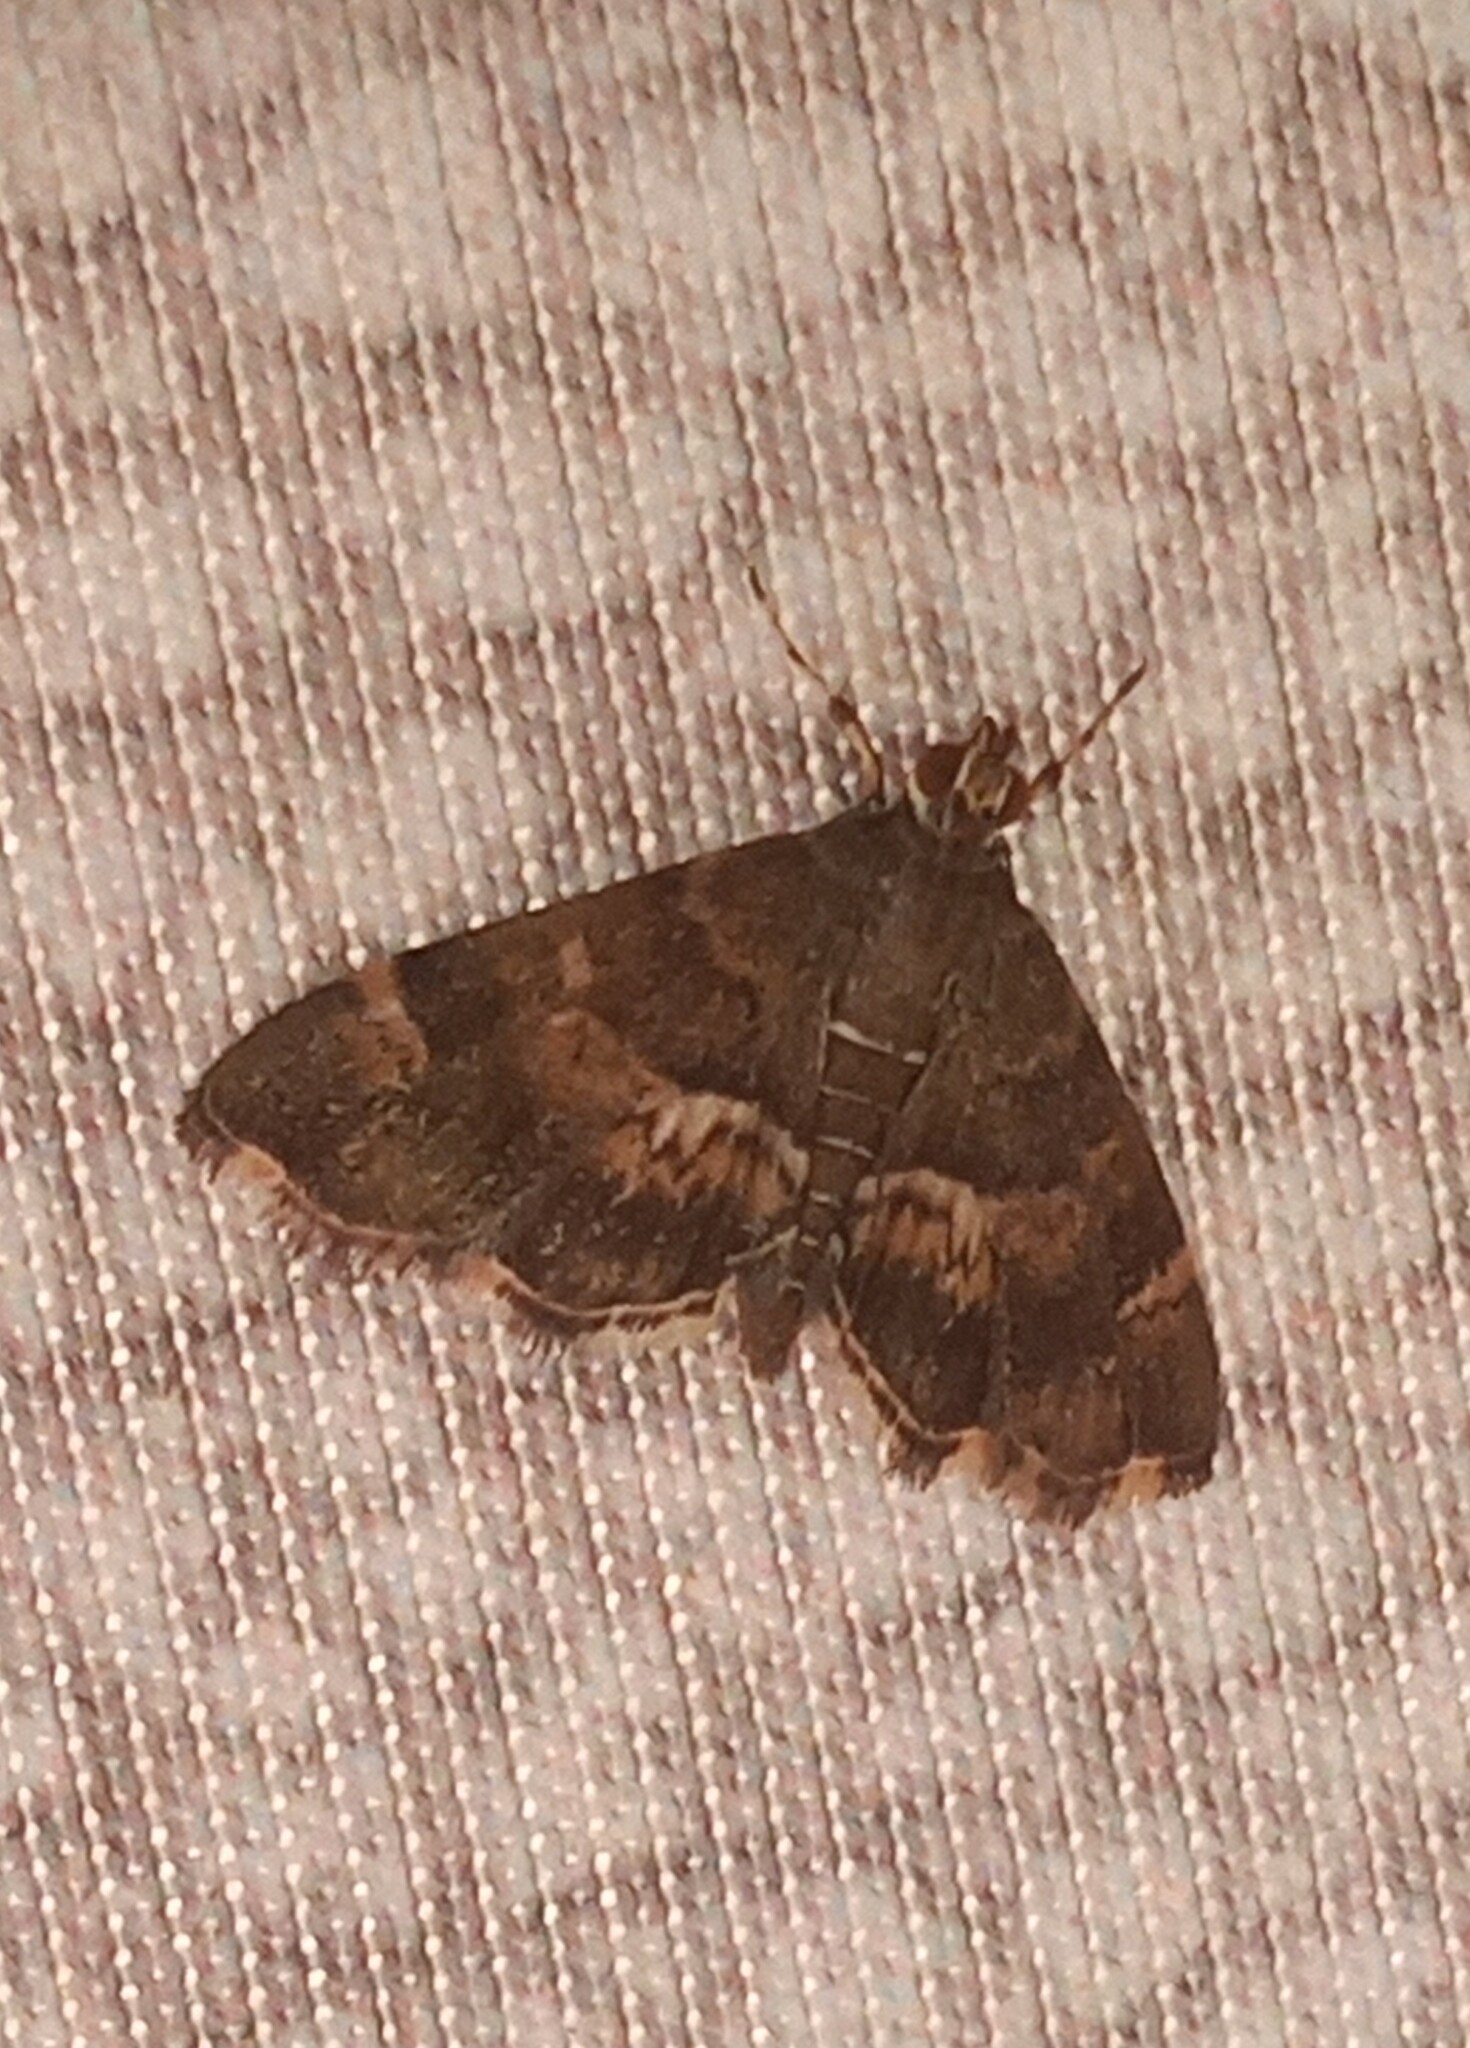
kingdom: Animalia
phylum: Arthropoda
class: Insecta
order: Lepidoptera
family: Crambidae
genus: Hymenia
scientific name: Hymenia perspectalis
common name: Spotted beet webworm
